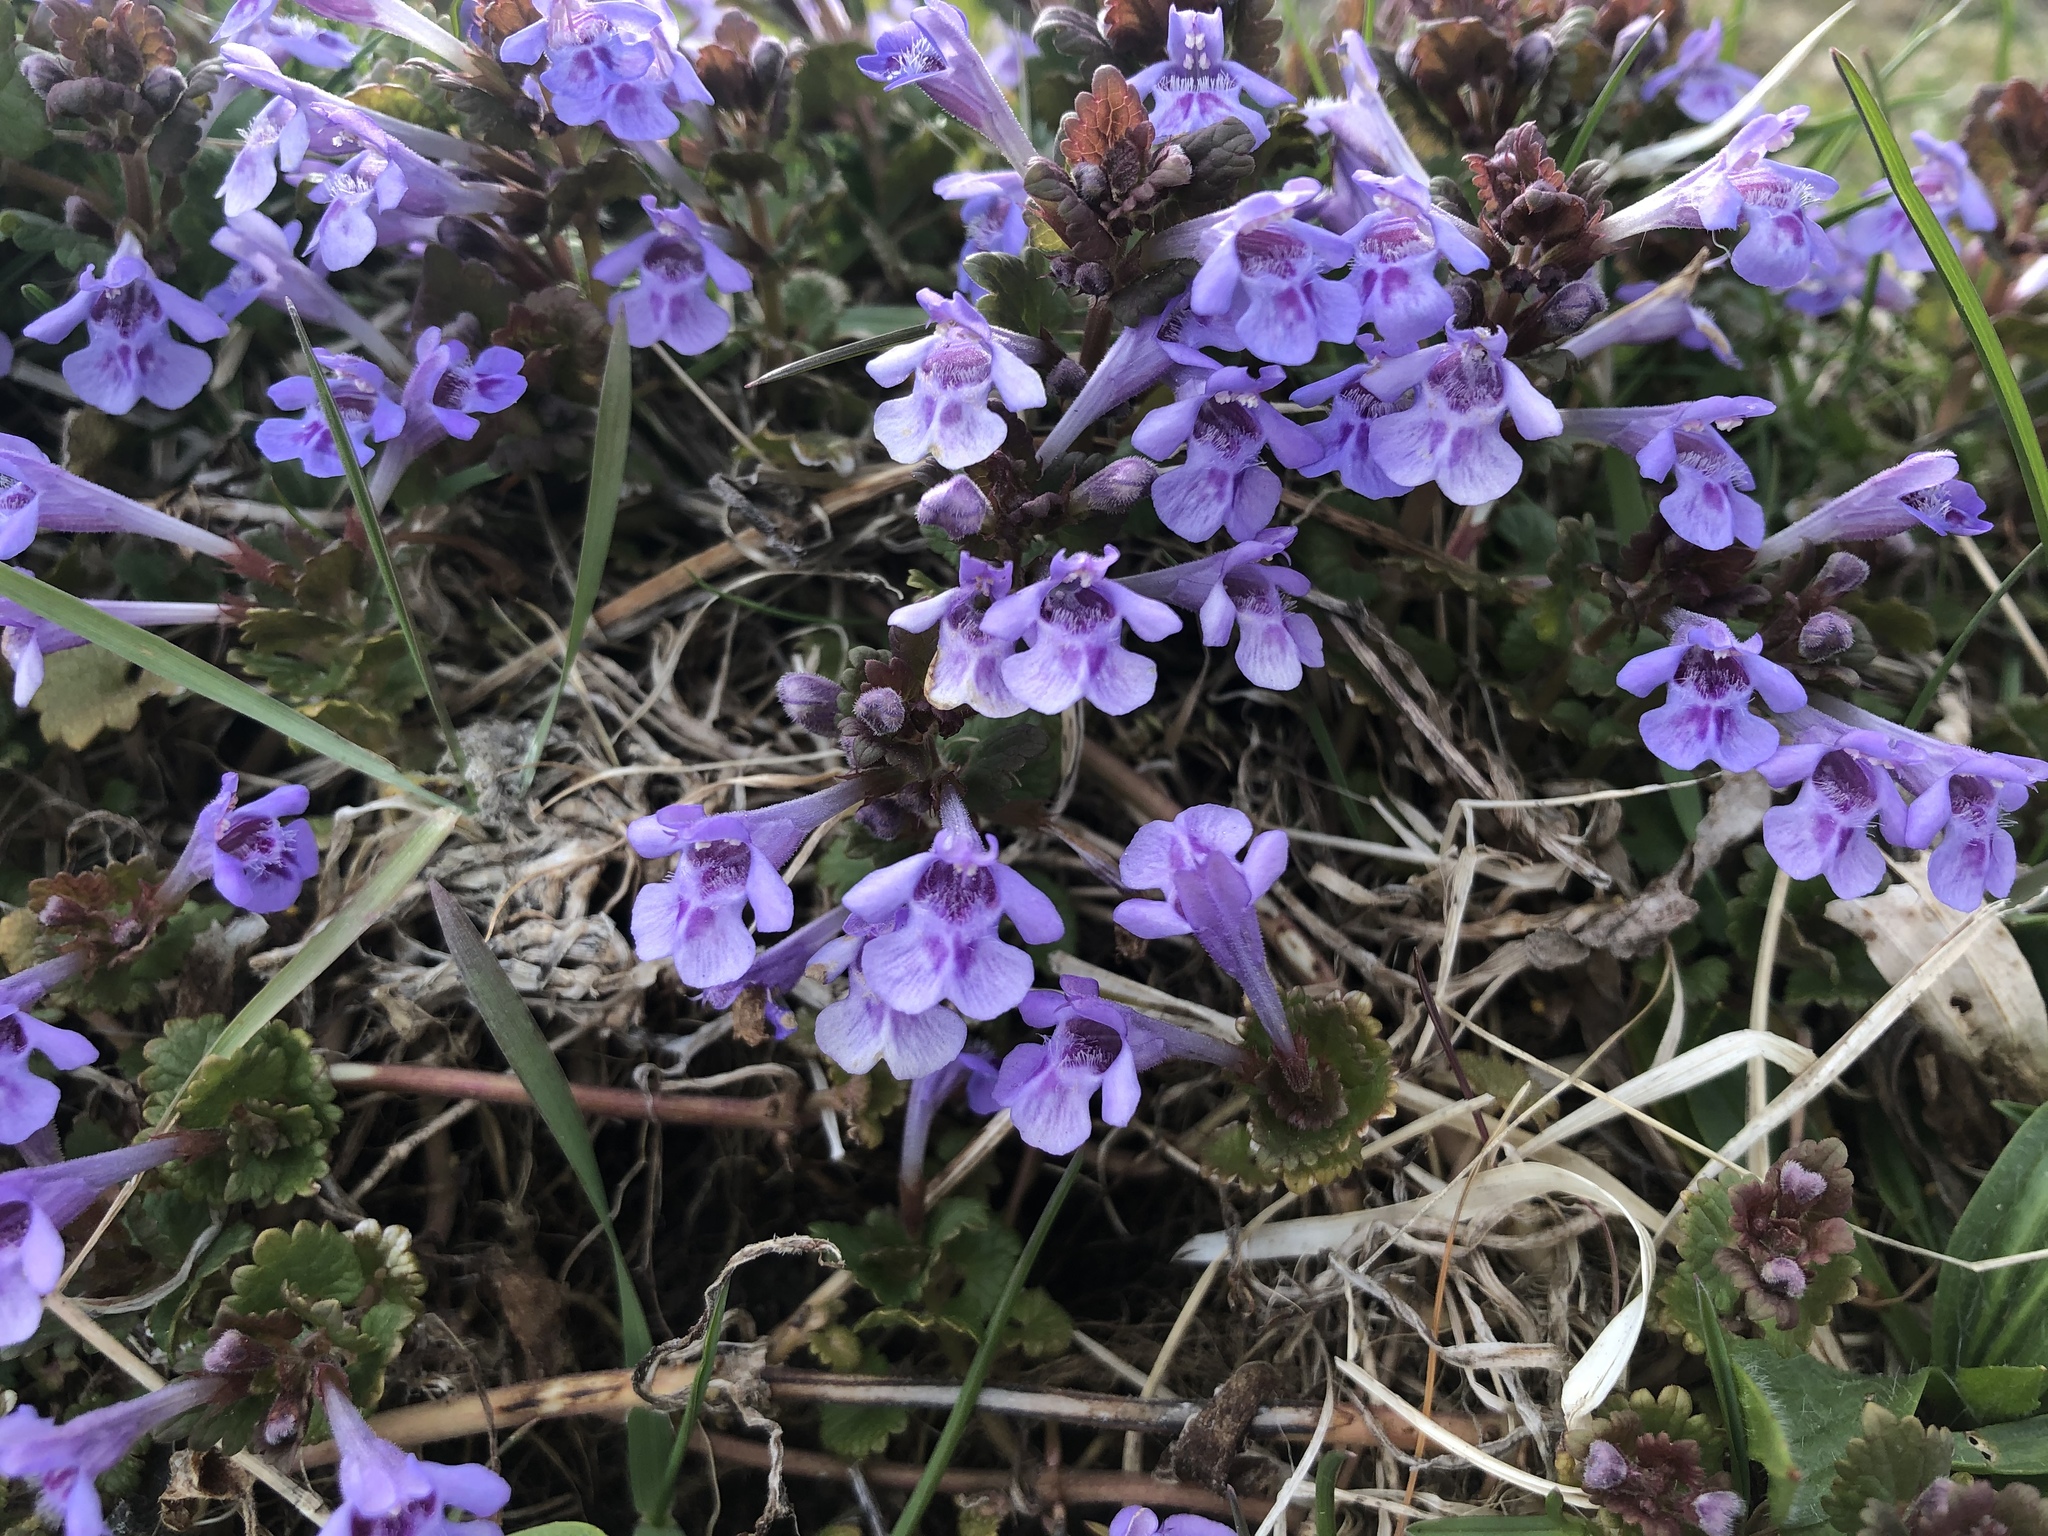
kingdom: Plantae
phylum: Tracheophyta
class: Magnoliopsida
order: Lamiales
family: Lamiaceae
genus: Glechoma
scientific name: Glechoma hederacea
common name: Ground ivy
